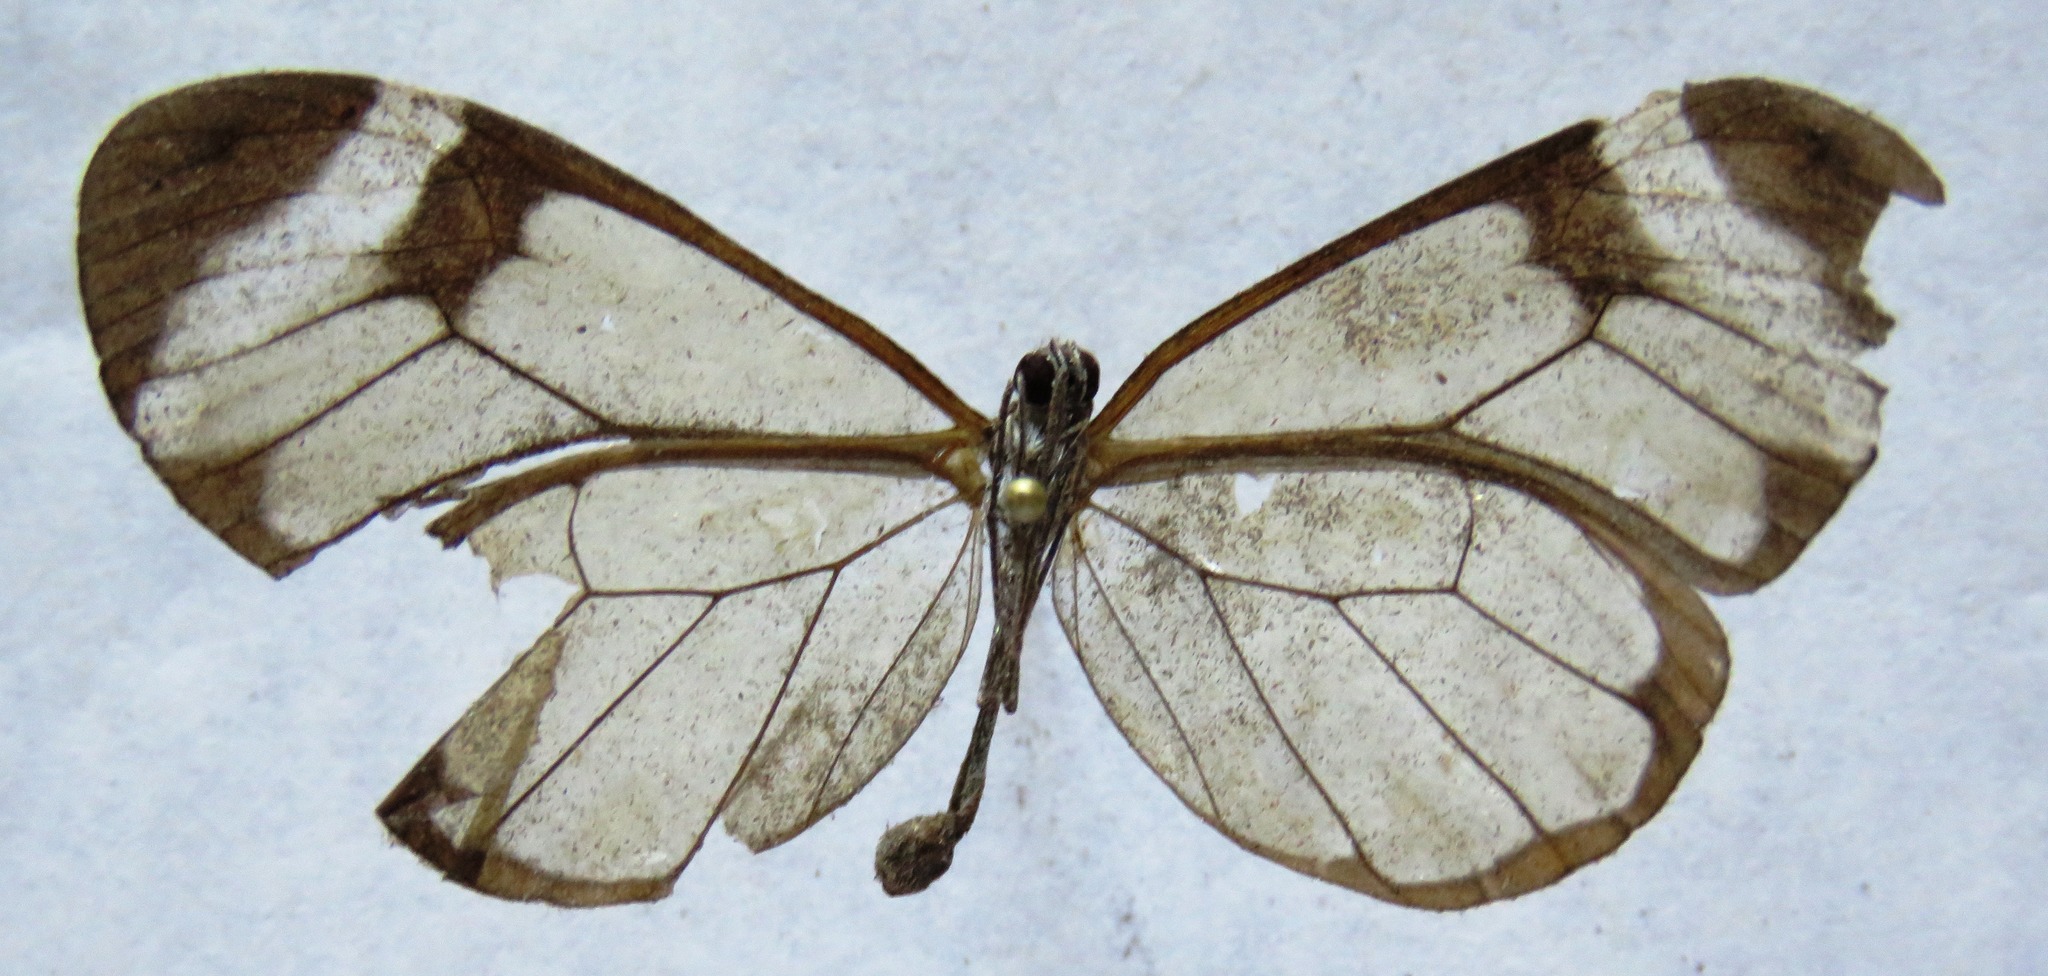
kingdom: Animalia
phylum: Arthropoda
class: Insecta
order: Lepidoptera
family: Nymphalidae
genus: Greta
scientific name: Greta morgane
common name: Thick-tipped greta
